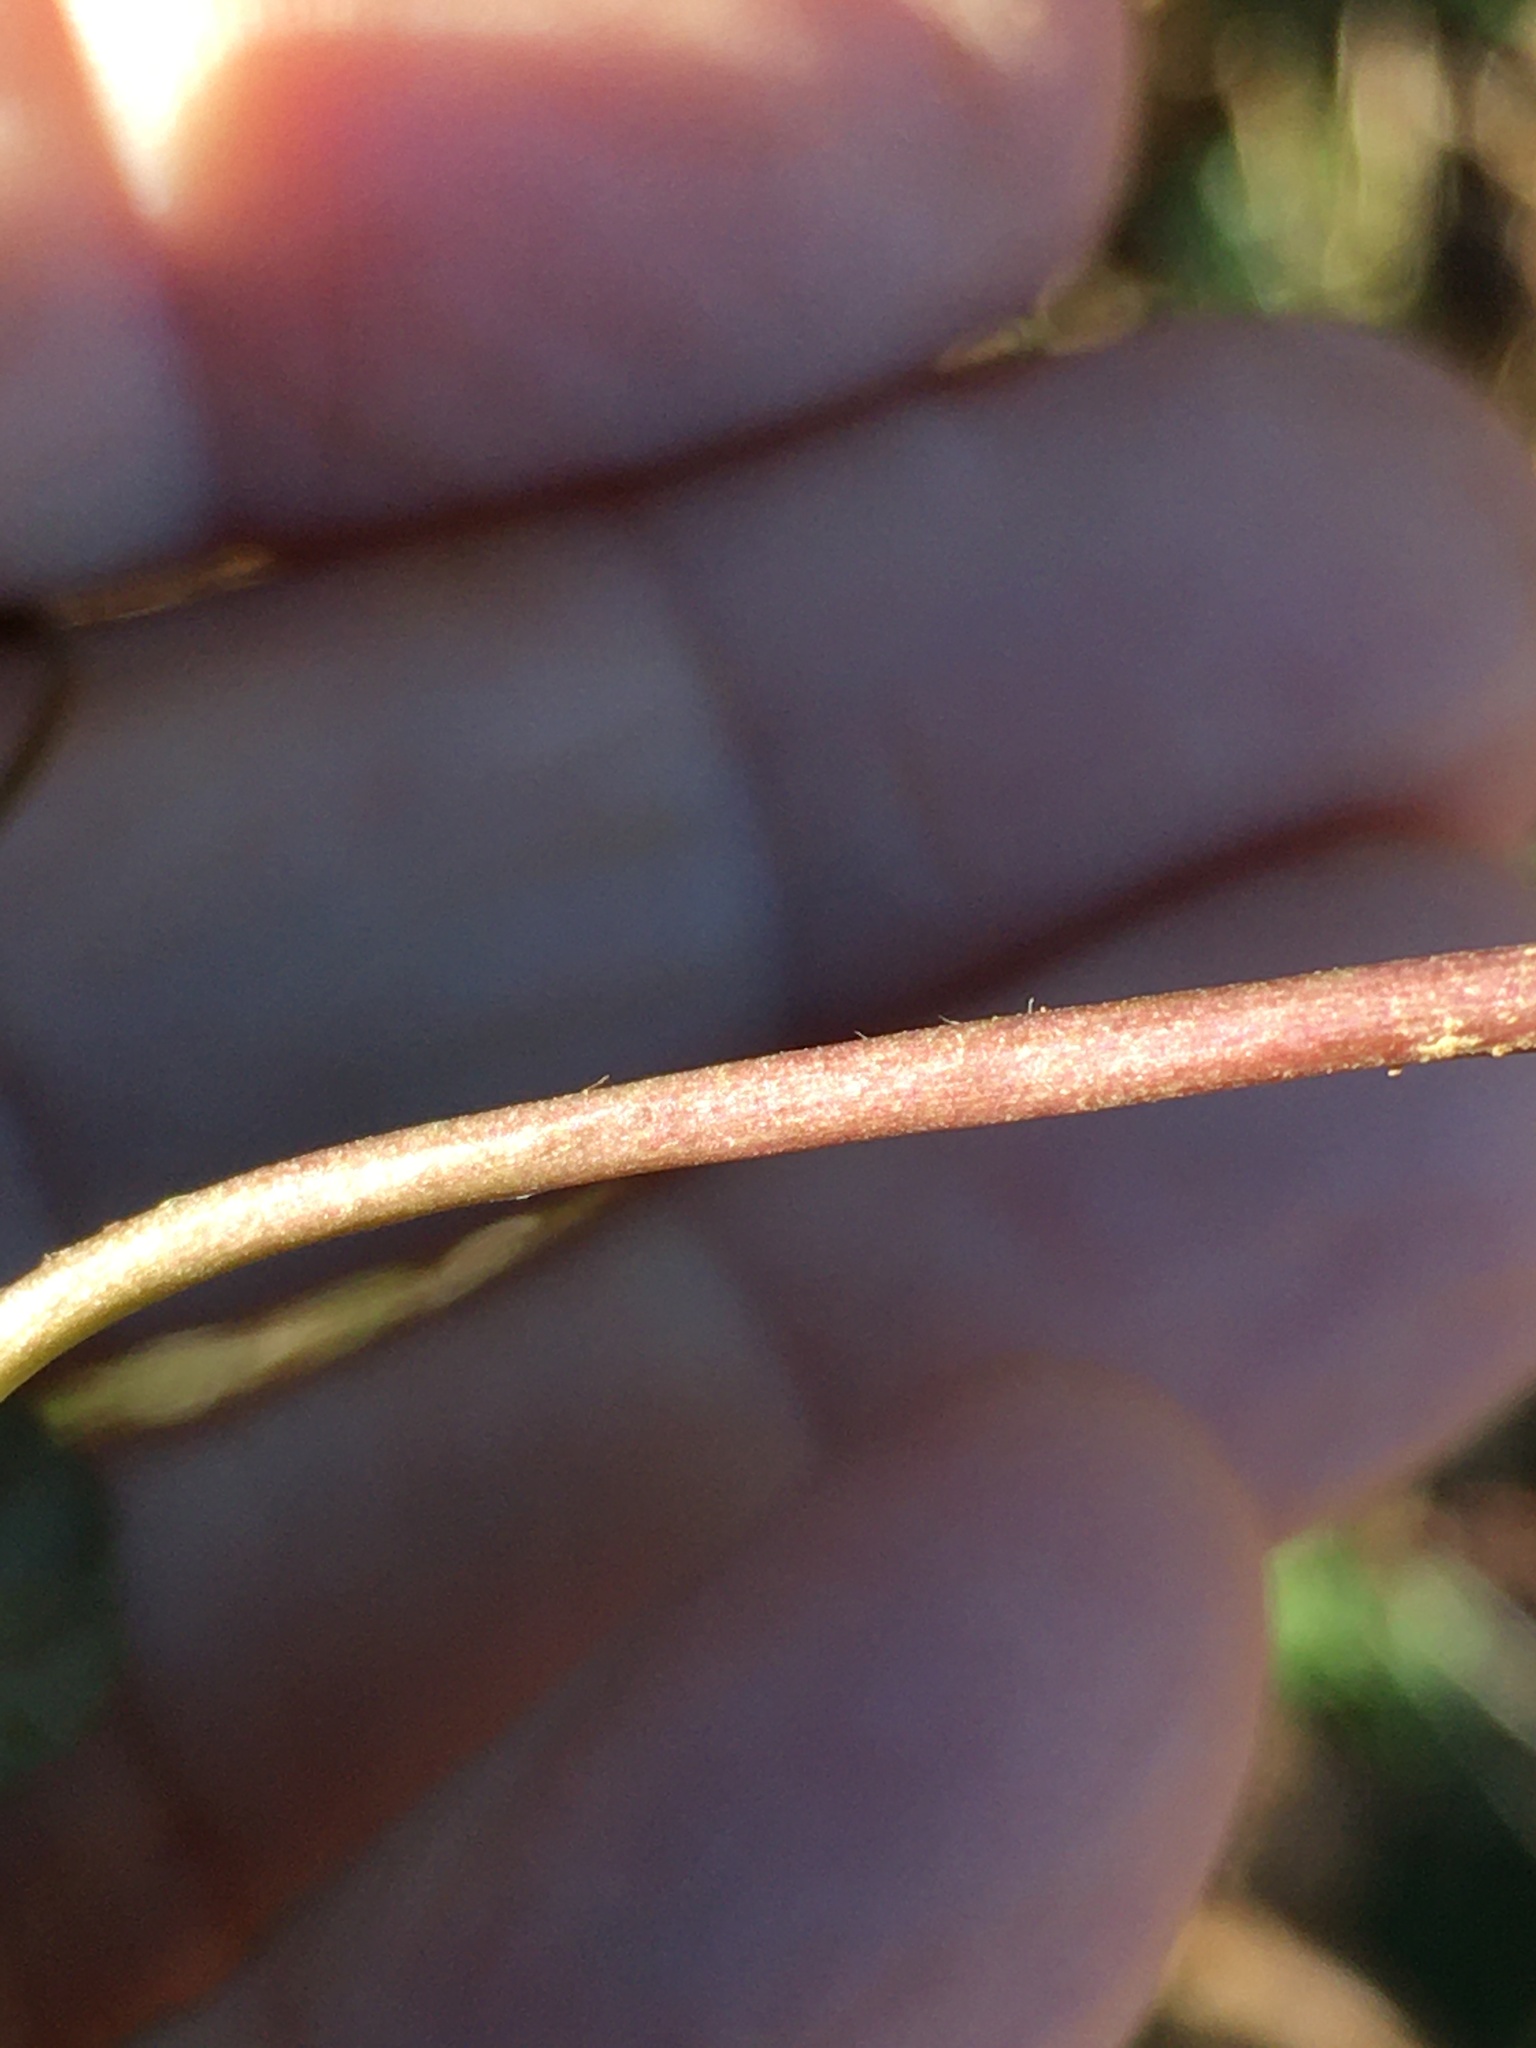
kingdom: Plantae
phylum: Tracheophyta
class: Magnoliopsida
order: Ranunculales
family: Ranunculaceae
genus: Ranunculus
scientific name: Ranunculus abortivus
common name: Early wood buttercup
